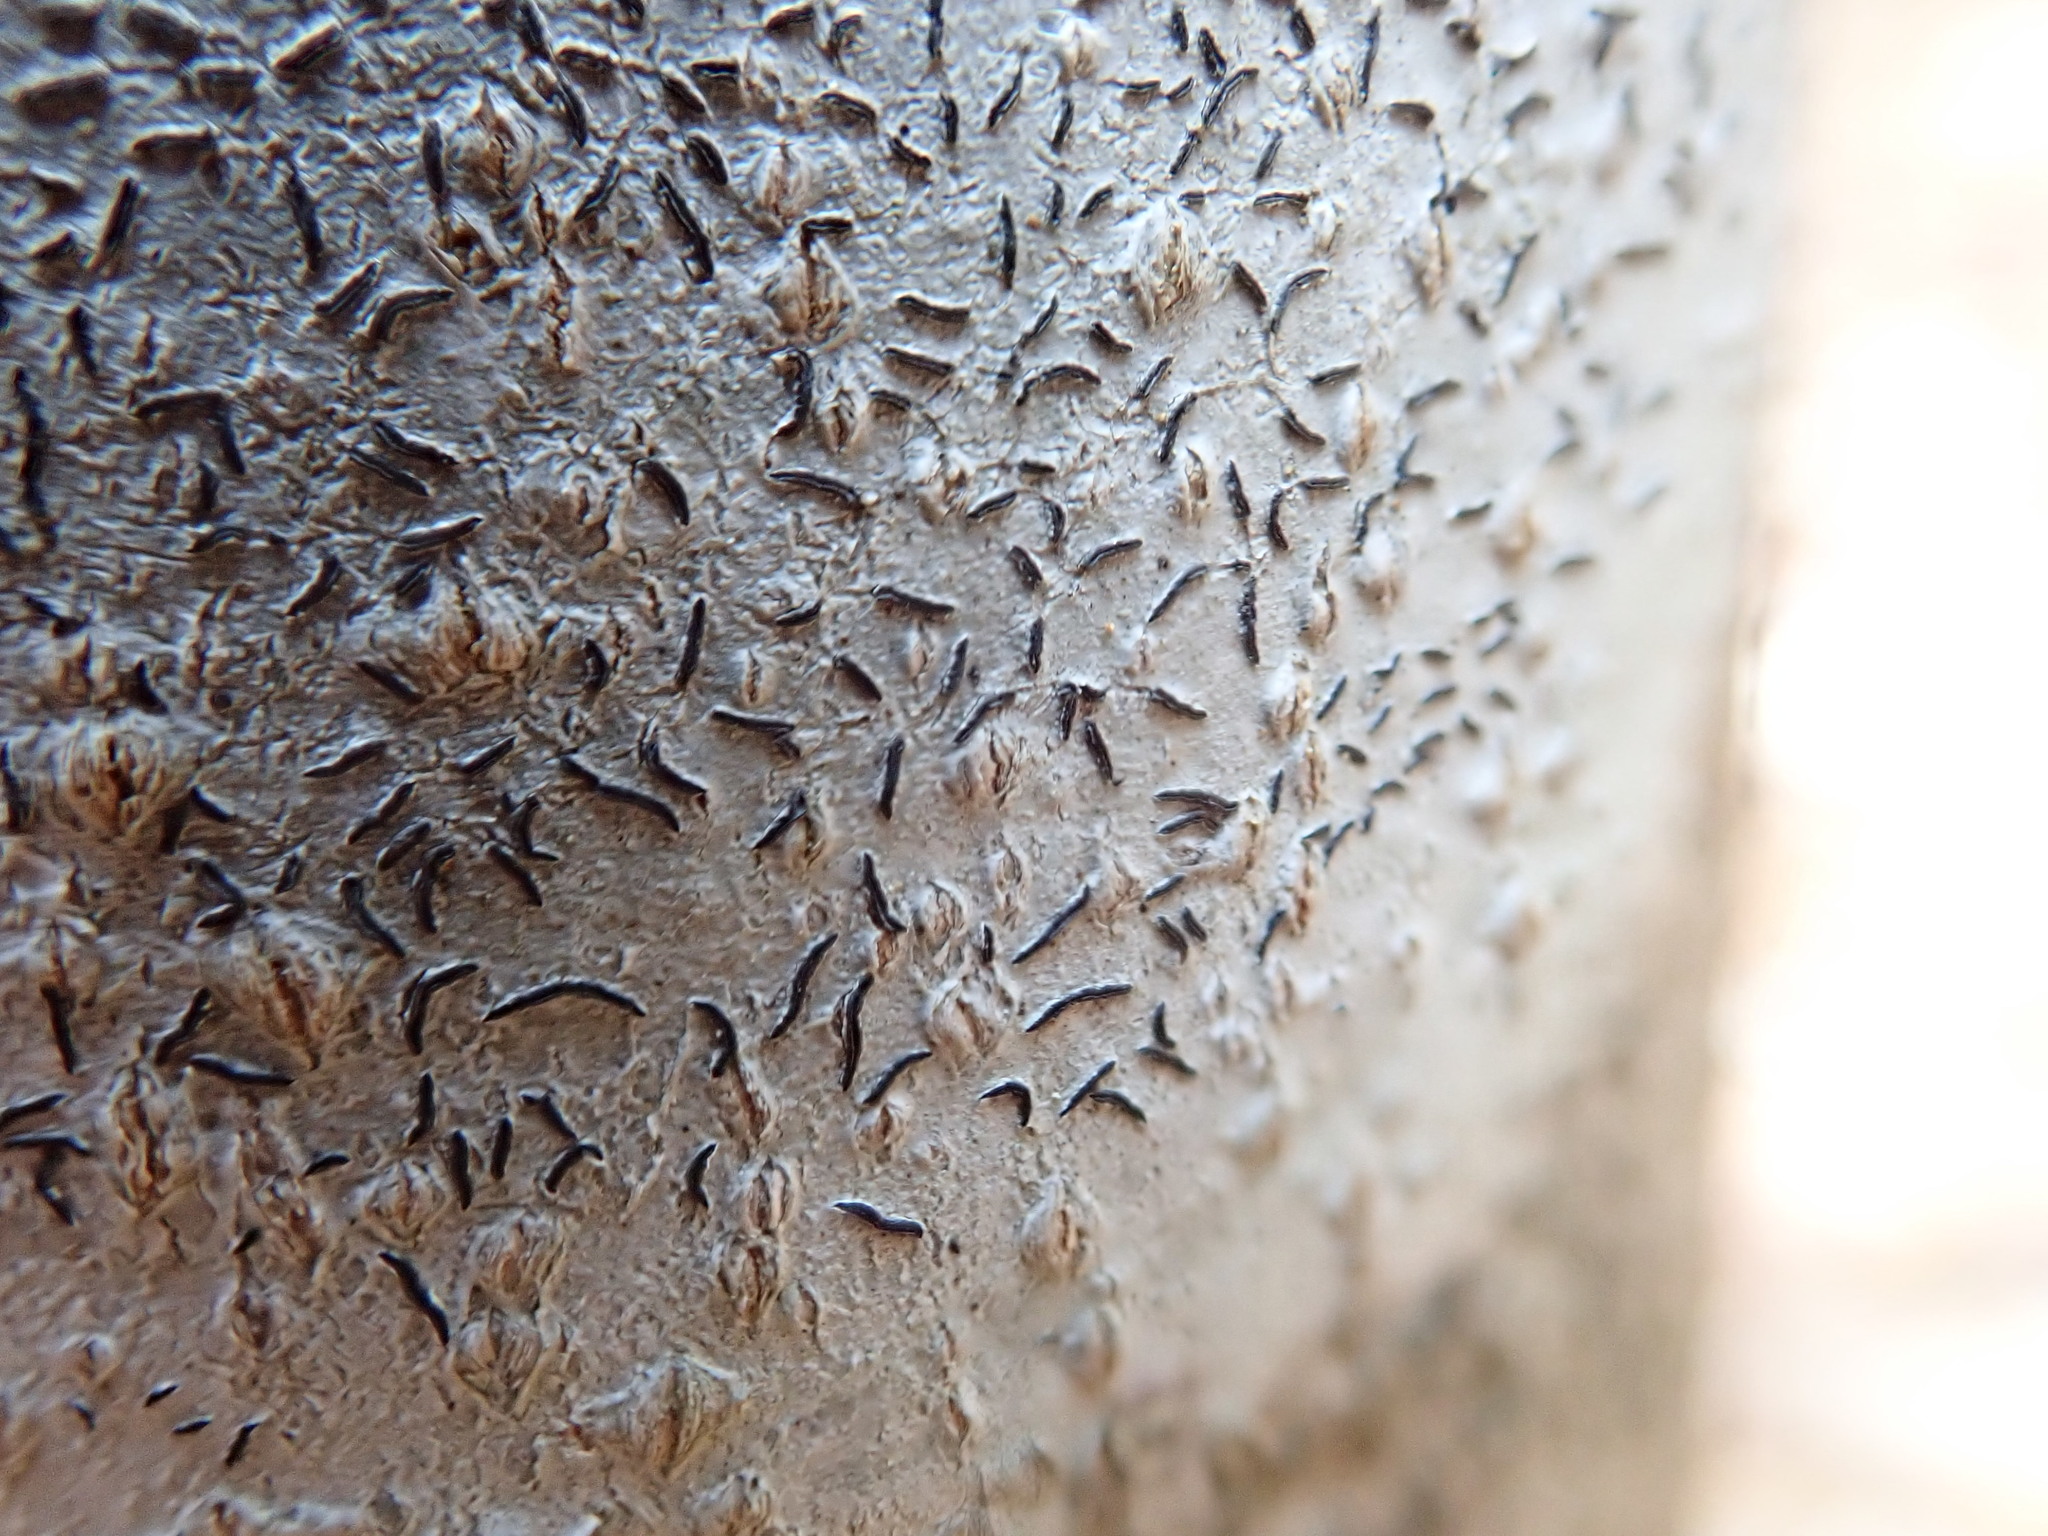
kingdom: Fungi
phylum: Ascomycota
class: Lecanoromycetes
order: Ostropales
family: Graphidaceae
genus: Graphis
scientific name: Graphis scripta
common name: Script lichen
